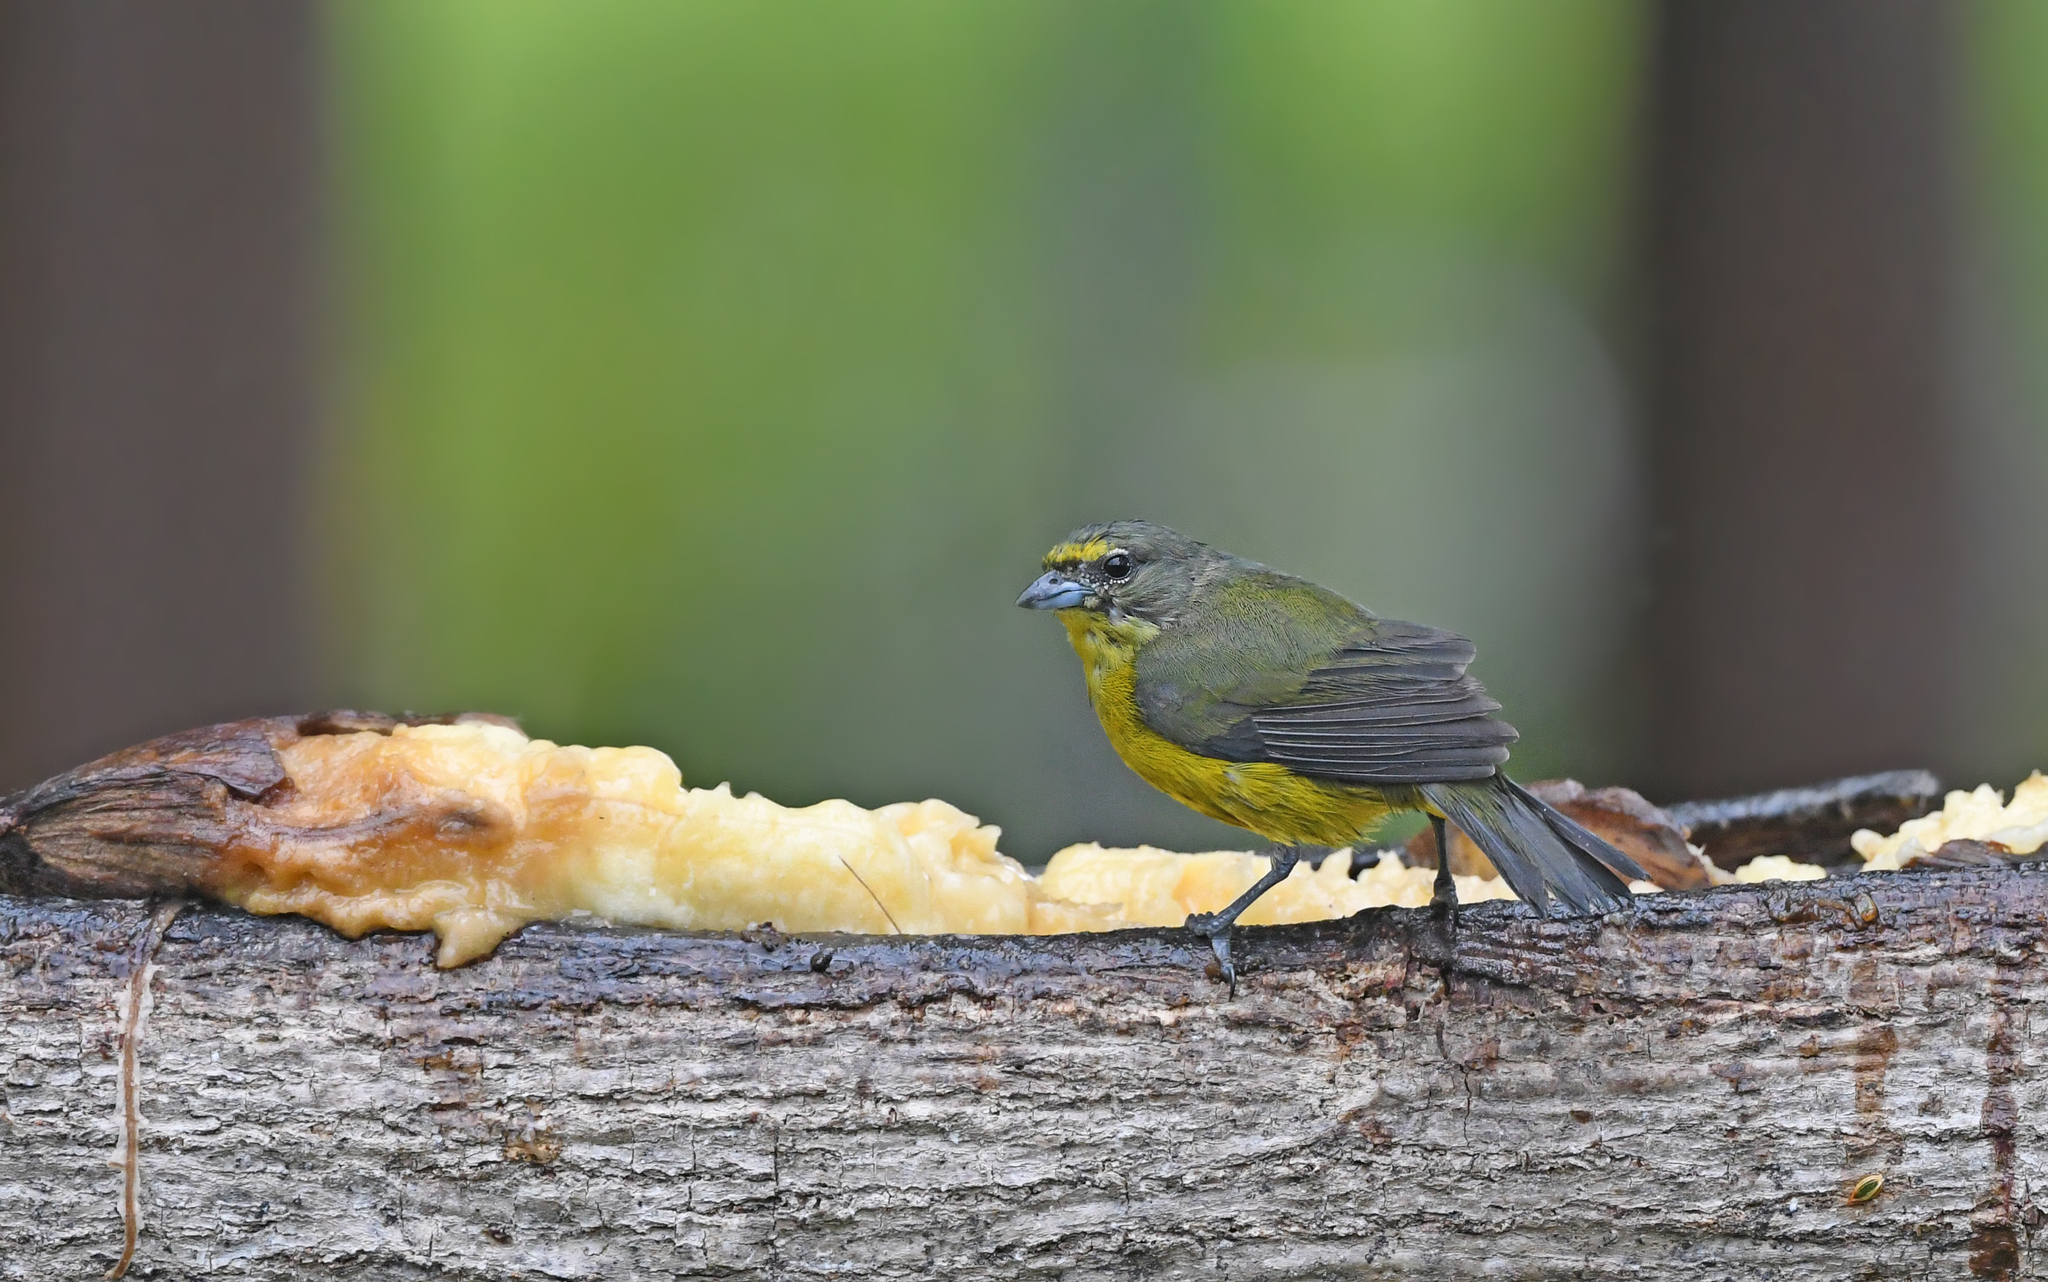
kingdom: Animalia
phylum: Chordata
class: Aves
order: Passeriformes
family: Fringillidae
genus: Euphonia
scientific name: Euphonia concinna
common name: Velvet-fronted euphonia
